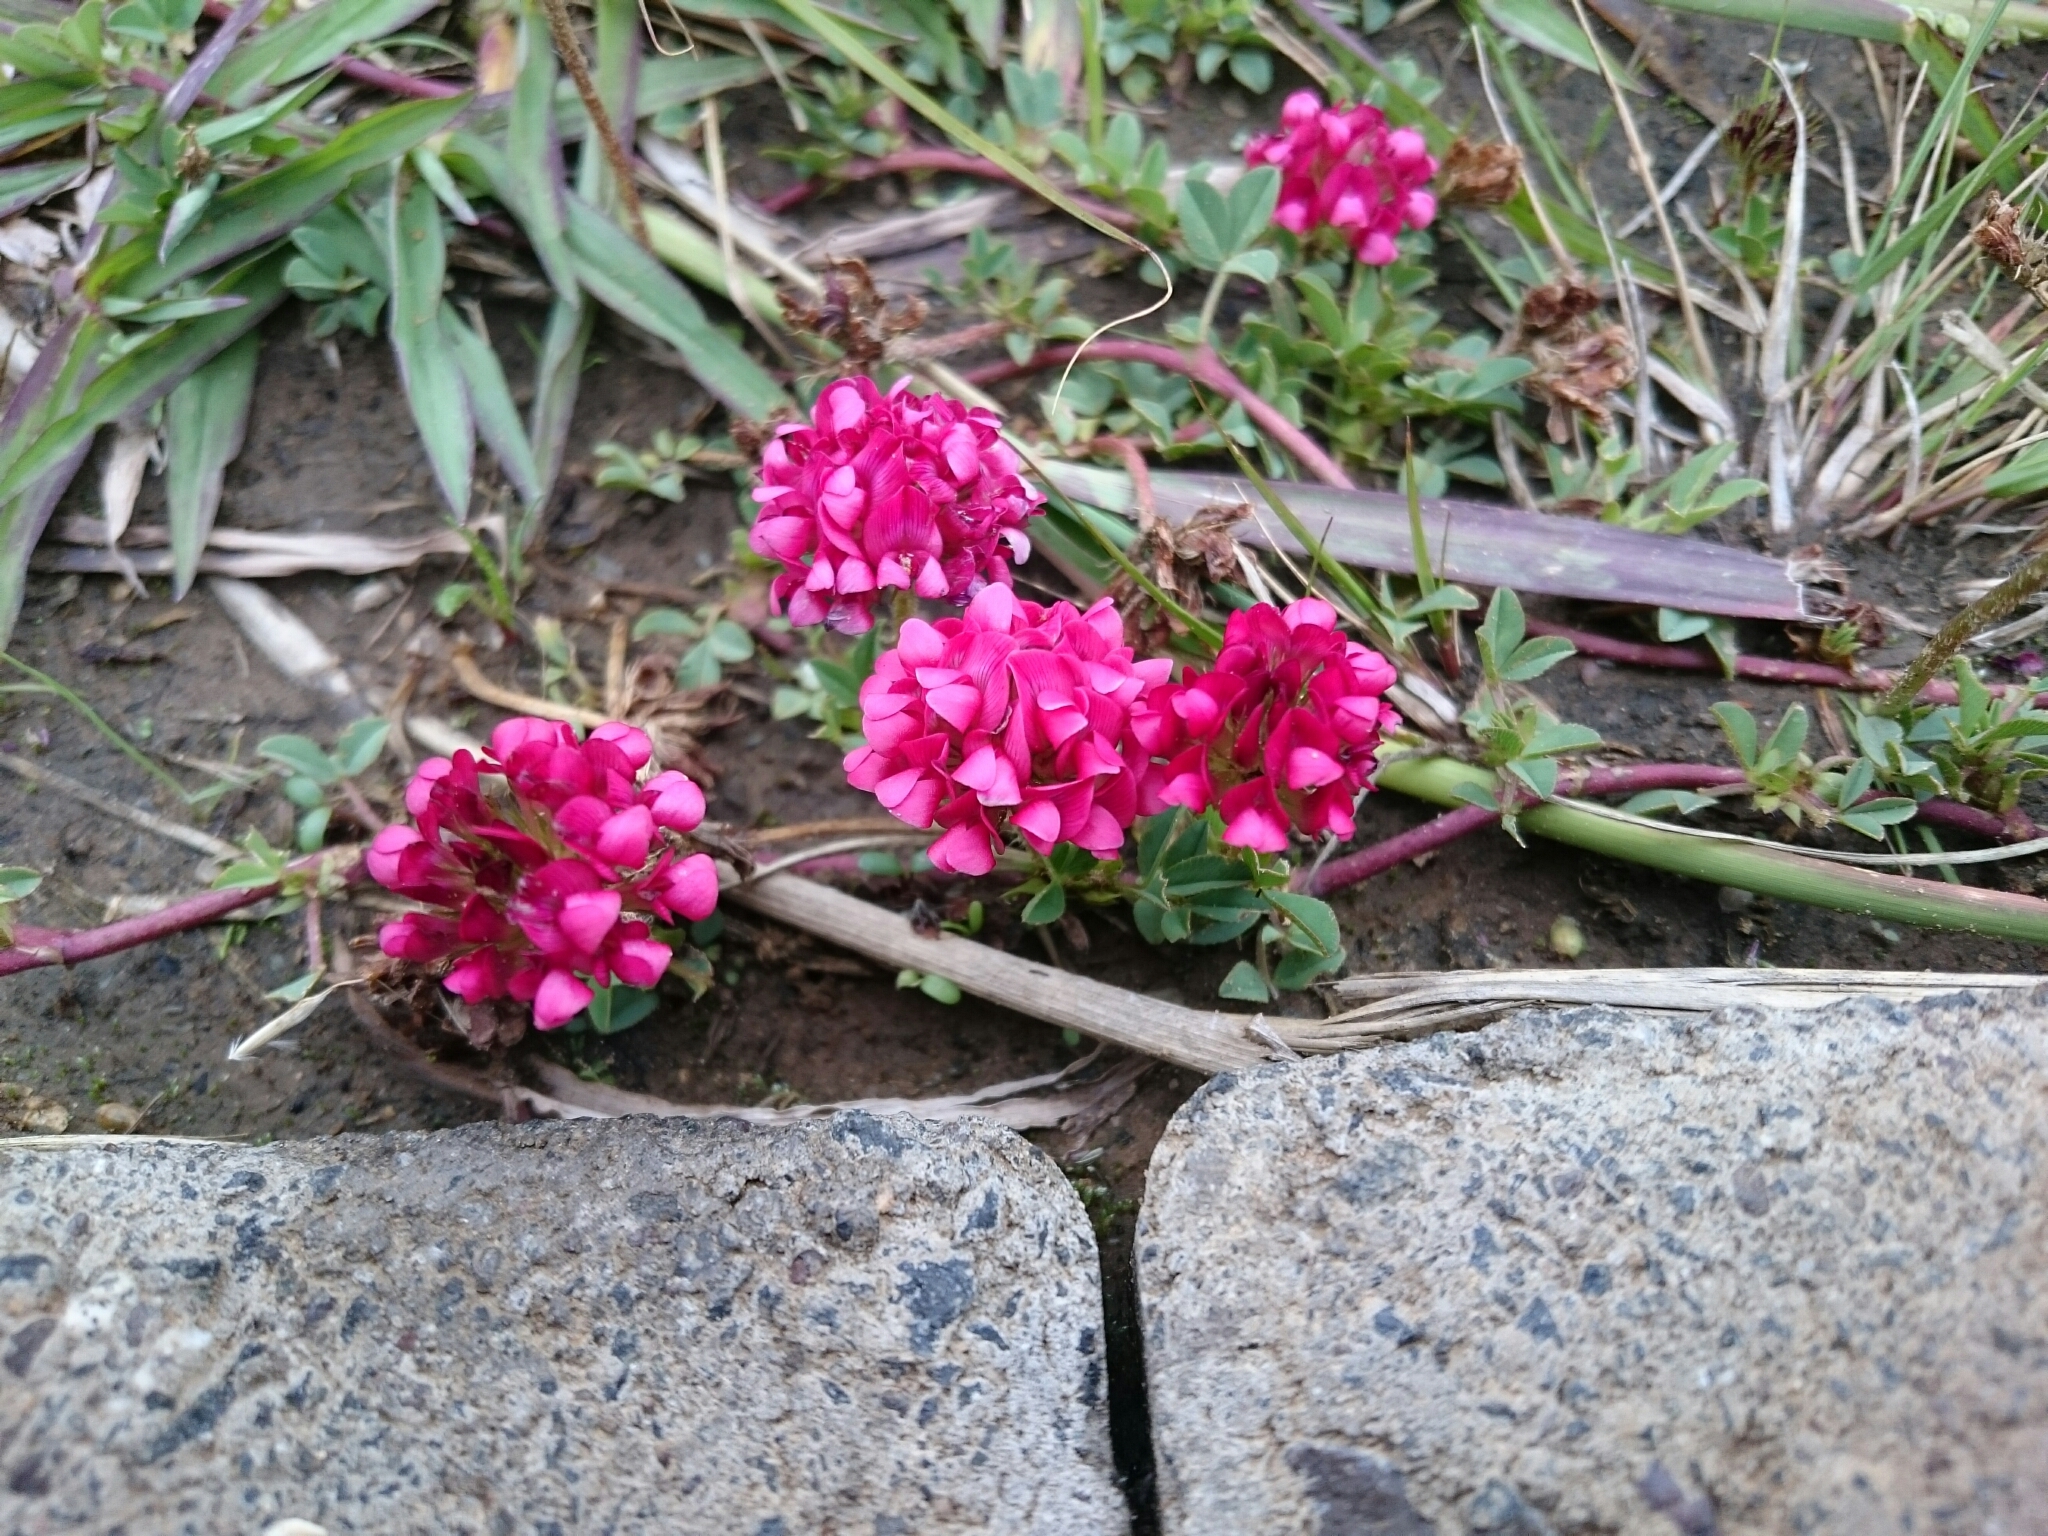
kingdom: Plantae
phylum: Tracheophyta
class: Magnoliopsida
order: Fabales
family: Fabaceae
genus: Trifolium
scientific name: Trifolium burchellianum
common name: Burchell's clover
